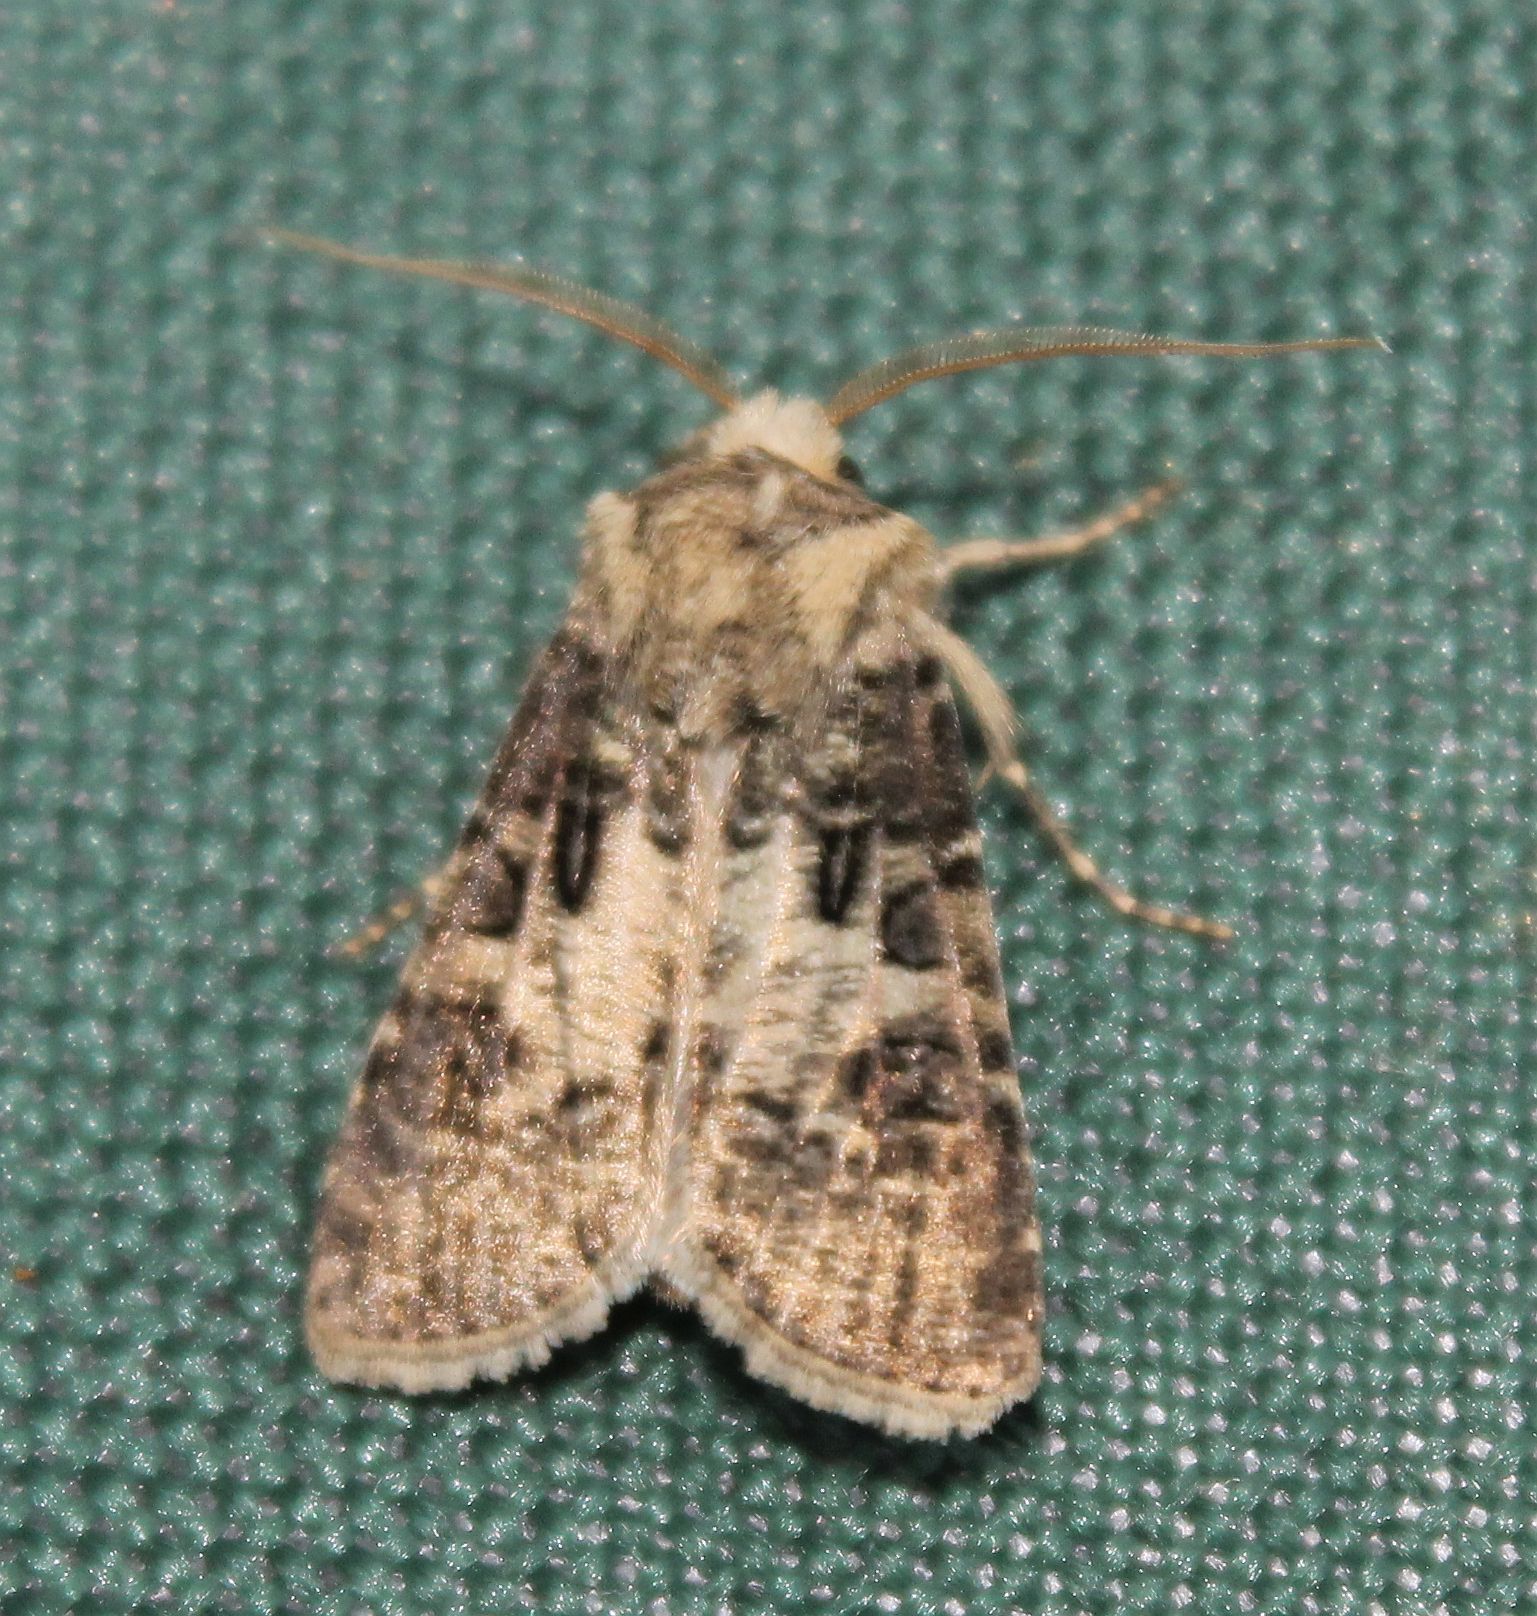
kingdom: Animalia
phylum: Arthropoda
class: Insecta
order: Lepidoptera
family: Noctuidae
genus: Agrotis
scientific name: Agrotis clavis
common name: Heart and club
